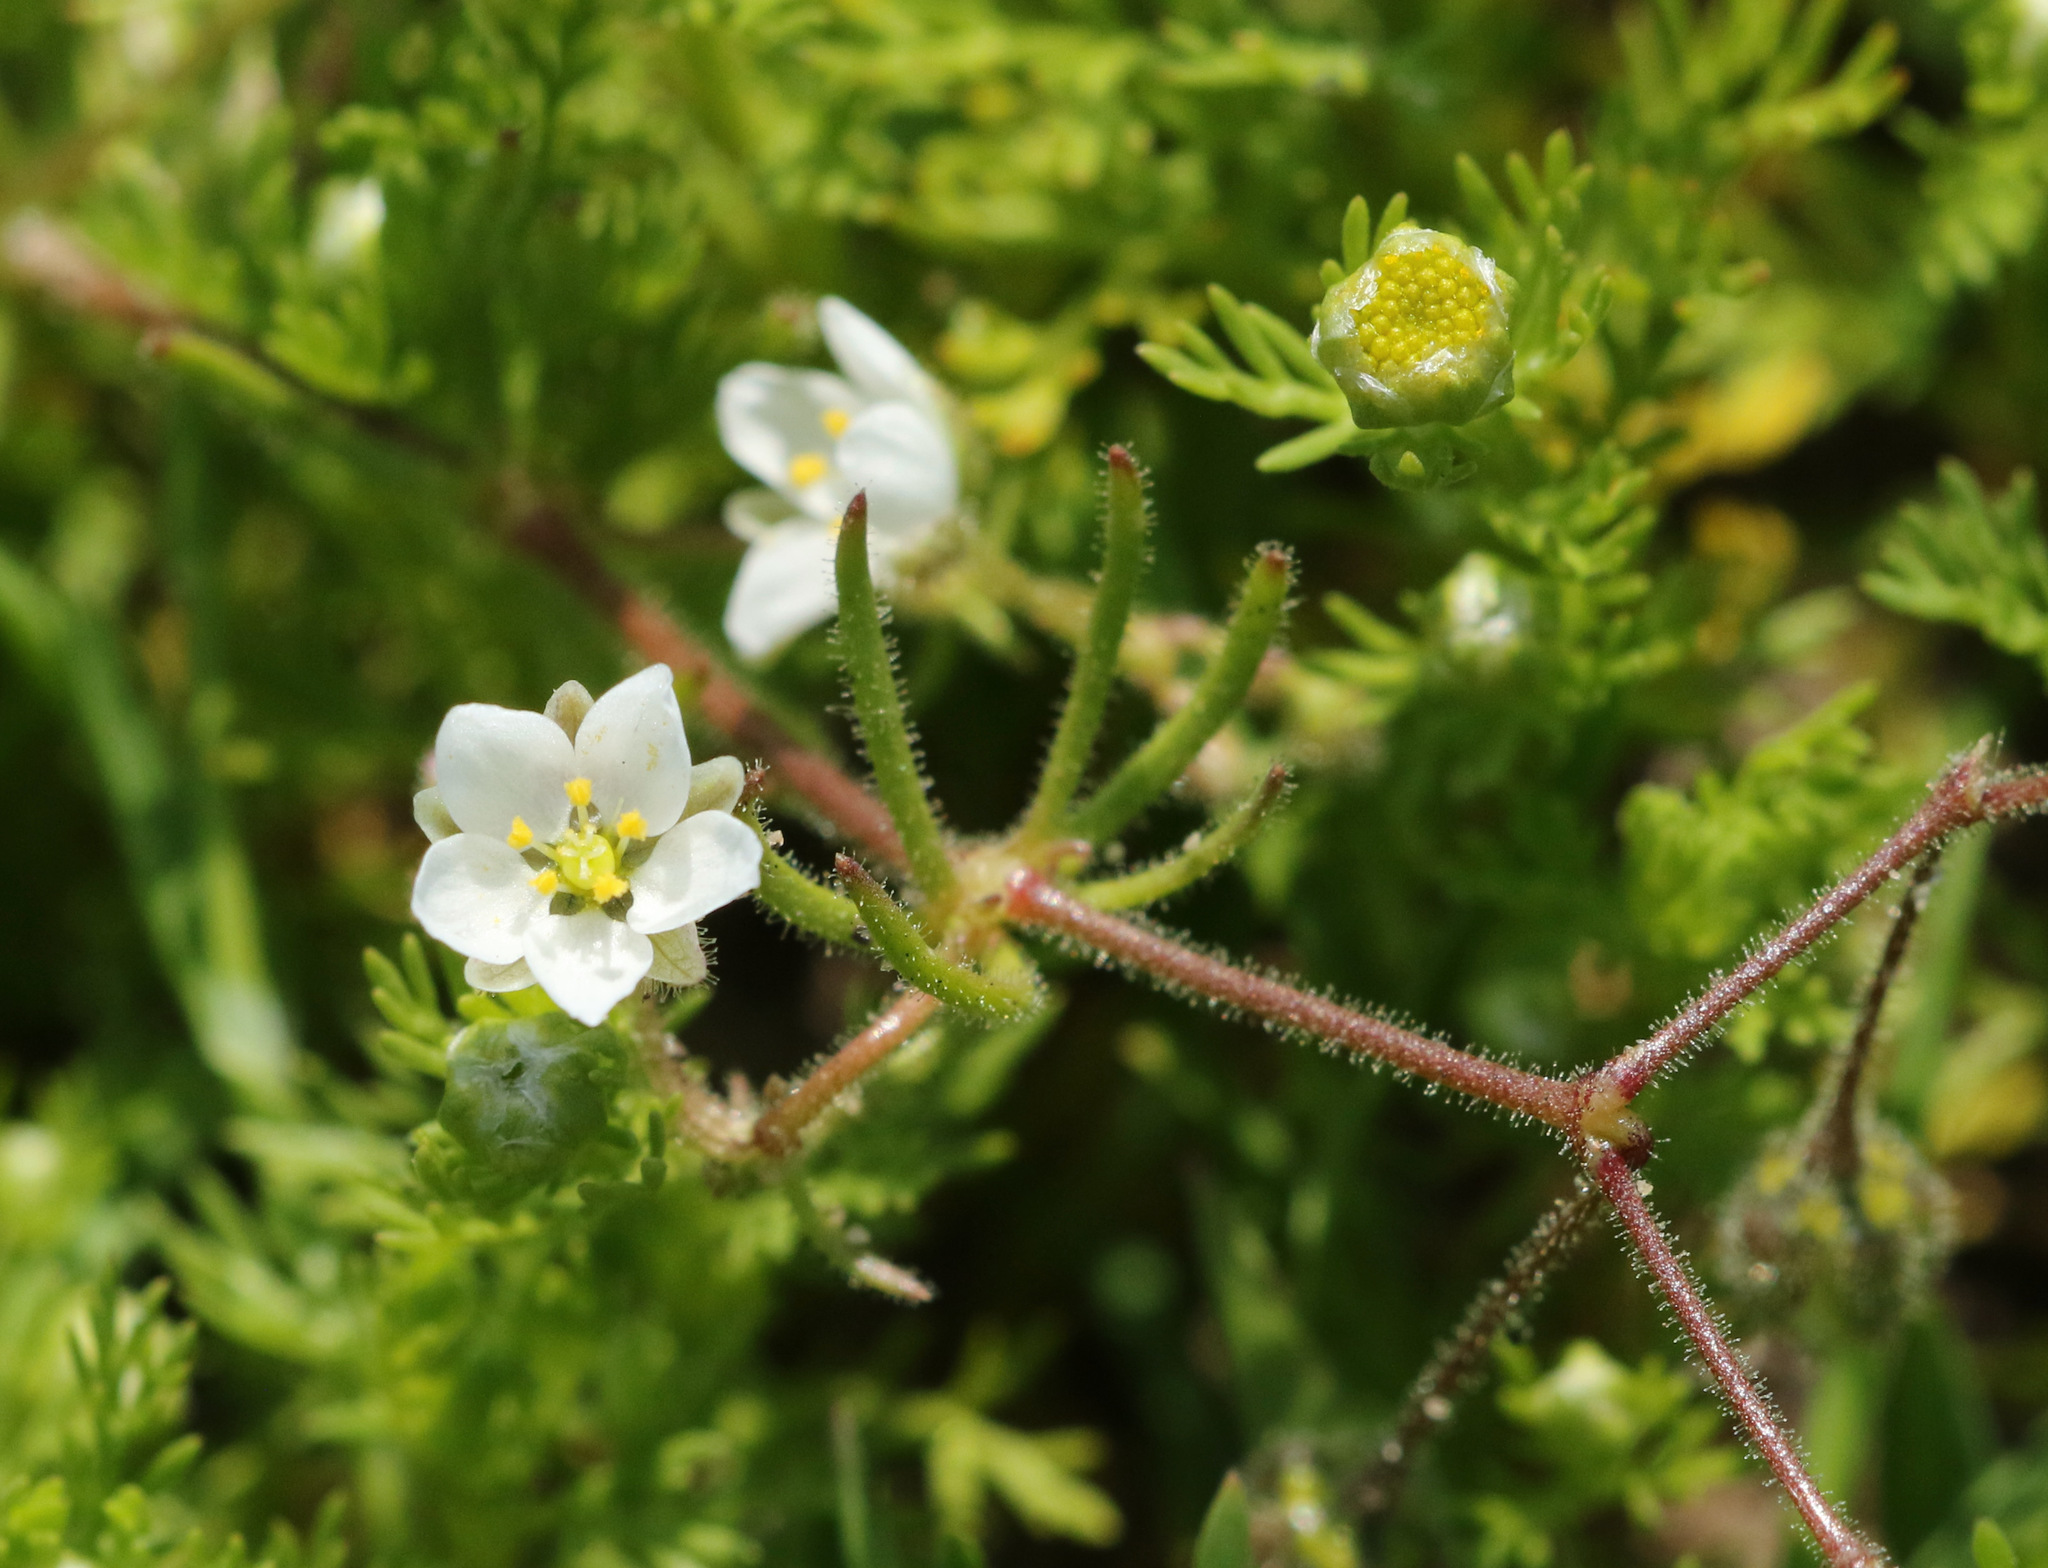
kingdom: Plantae
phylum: Tracheophyta
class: Magnoliopsida
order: Caryophyllales
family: Caryophyllaceae
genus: Spergula
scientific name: Spergula arvensis
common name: Corn spurrey
